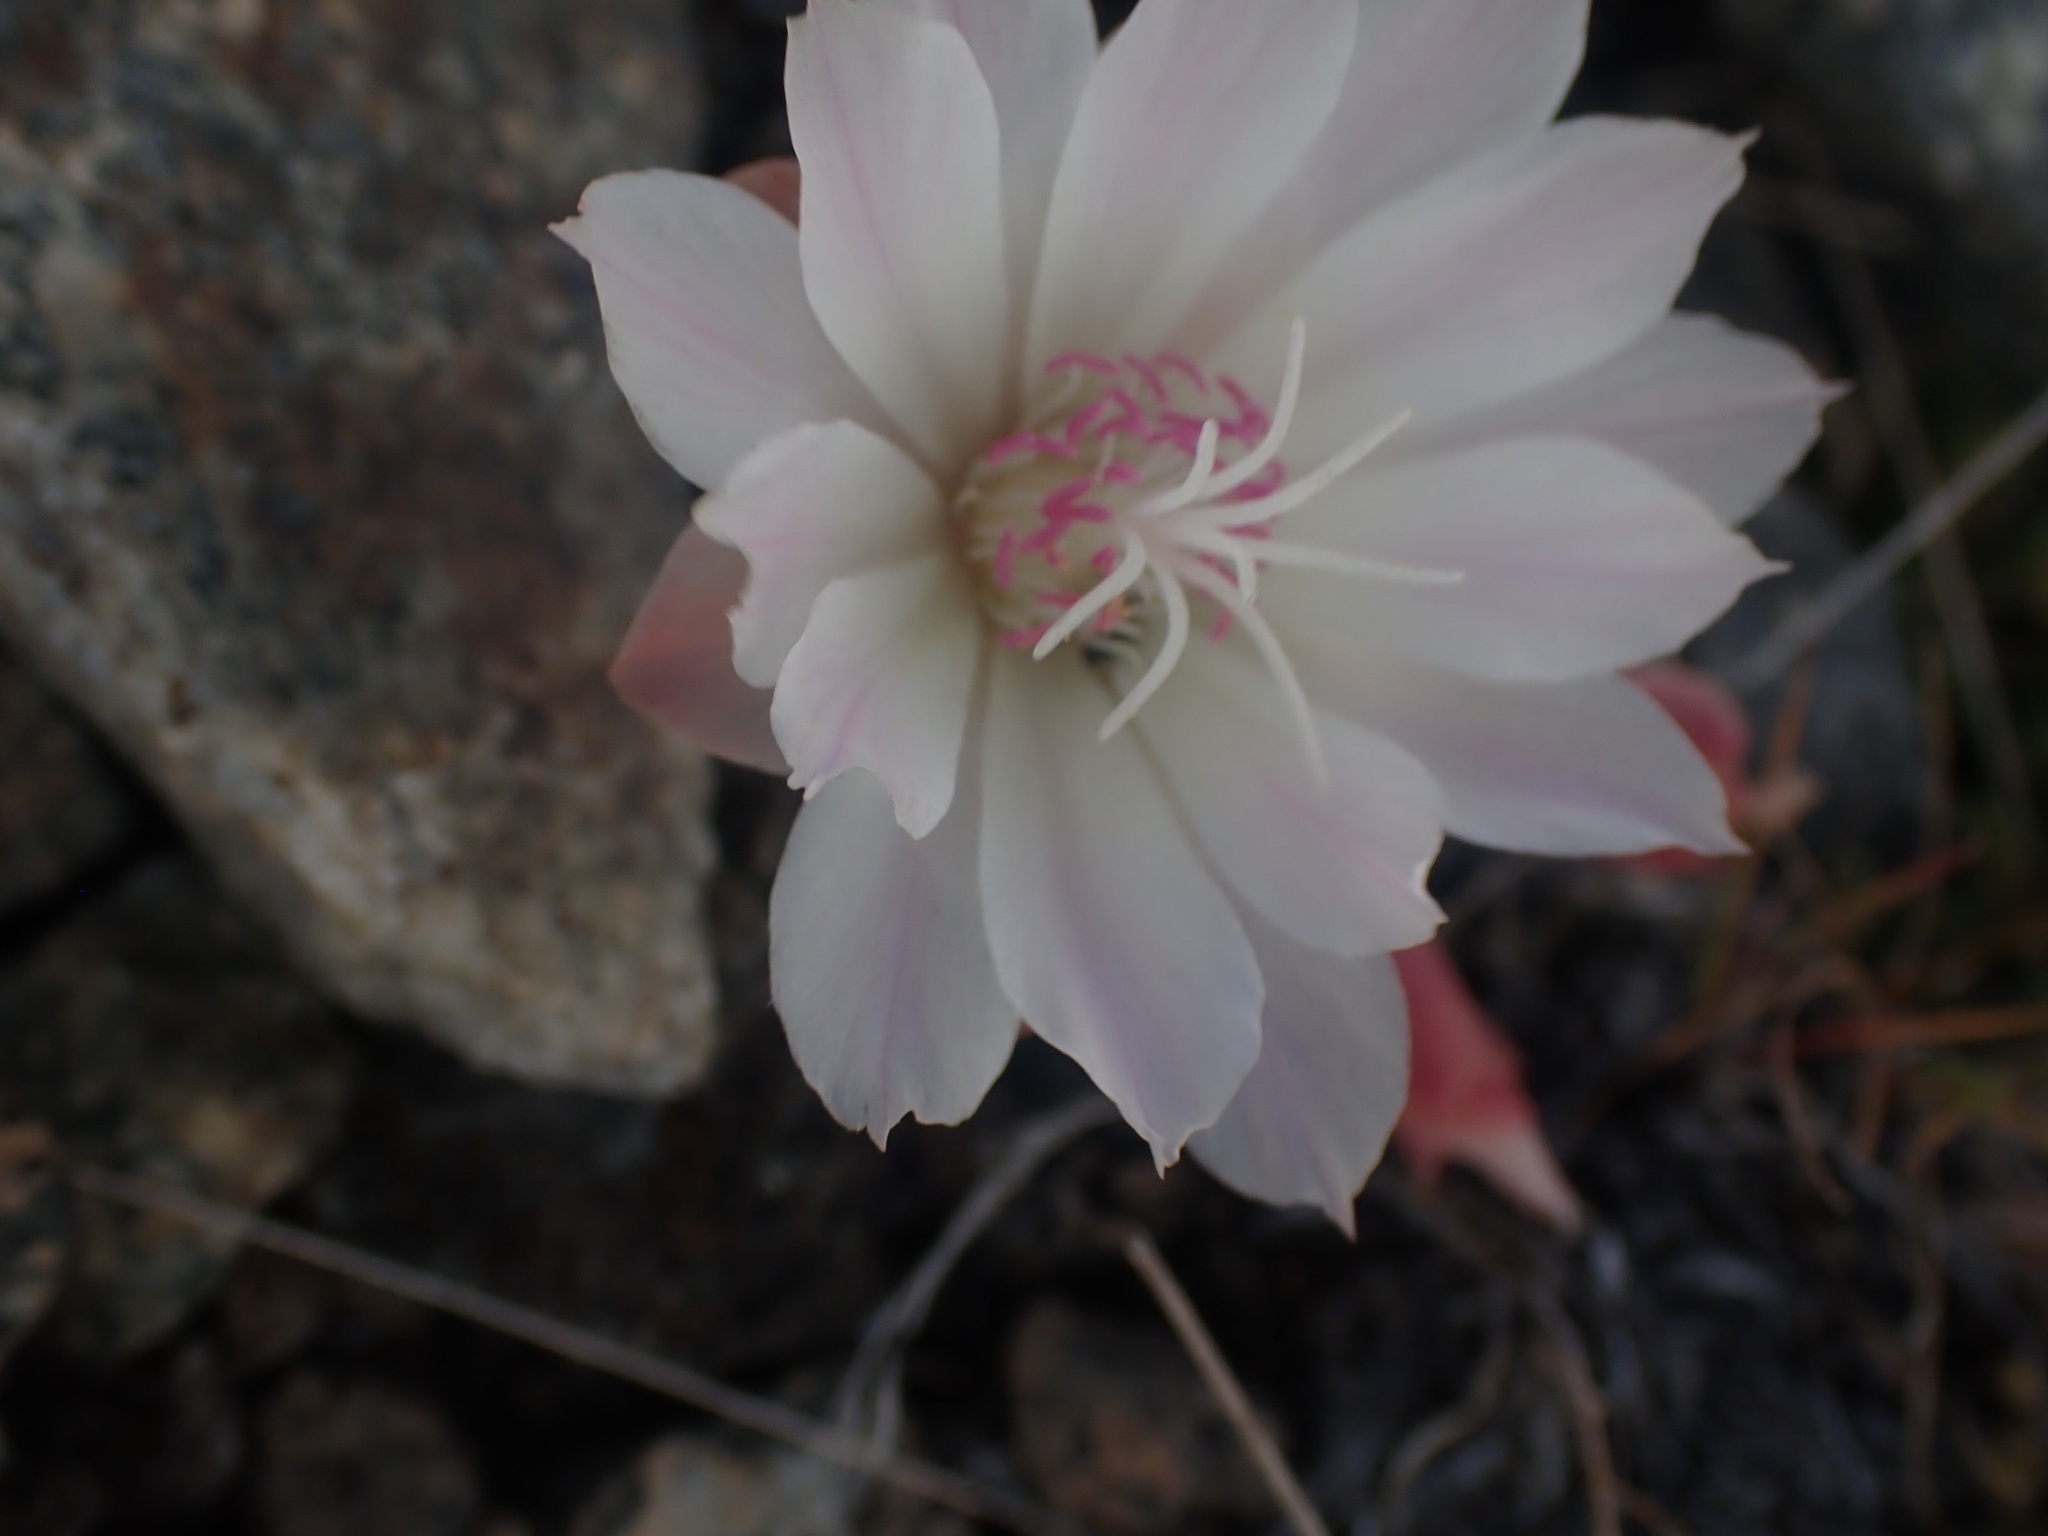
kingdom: Plantae
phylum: Tracheophyta
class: Magnoliopsida
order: Caryophyllales
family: Montiaceae
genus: Lewisia
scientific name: Lewisia rediviva
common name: Bitter-root
